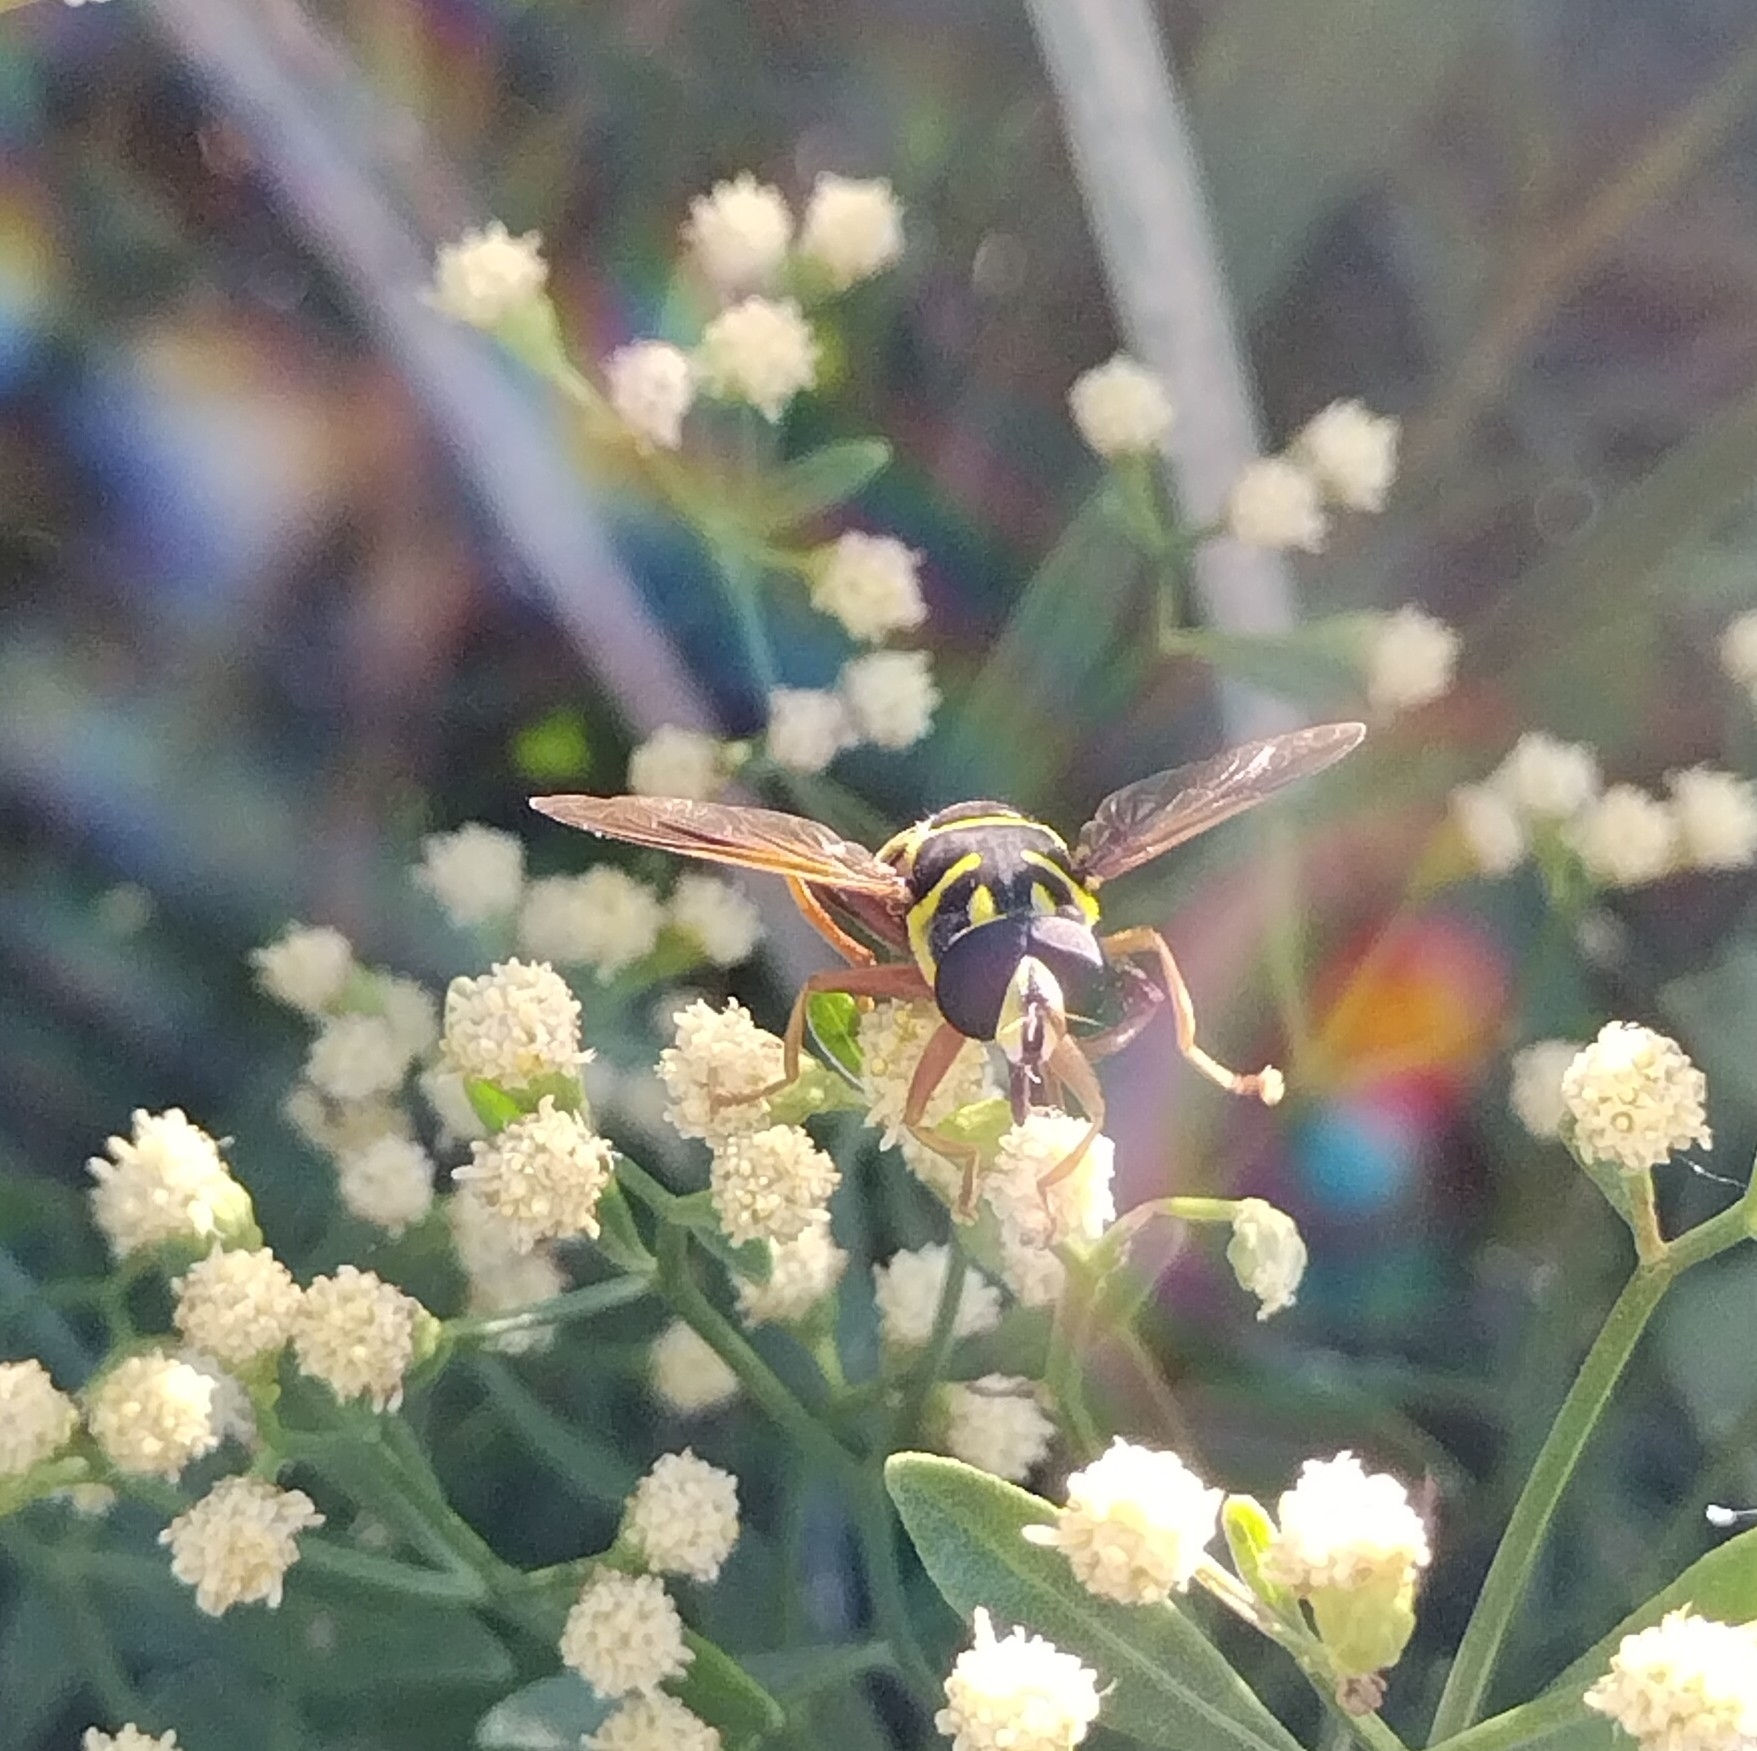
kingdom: Animalia
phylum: Arthropoda
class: Insecta
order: Diptera
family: Syrphidae
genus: Meromacrus
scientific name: Meromacrus acutus
